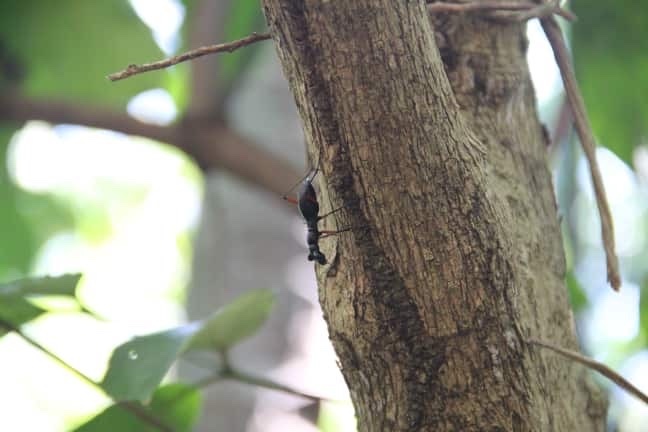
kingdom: Animalia
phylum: Arthropoda
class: Insecta
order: Coleoptera
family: Carabidae
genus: Tricondyla
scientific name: Tricondyla aptera
